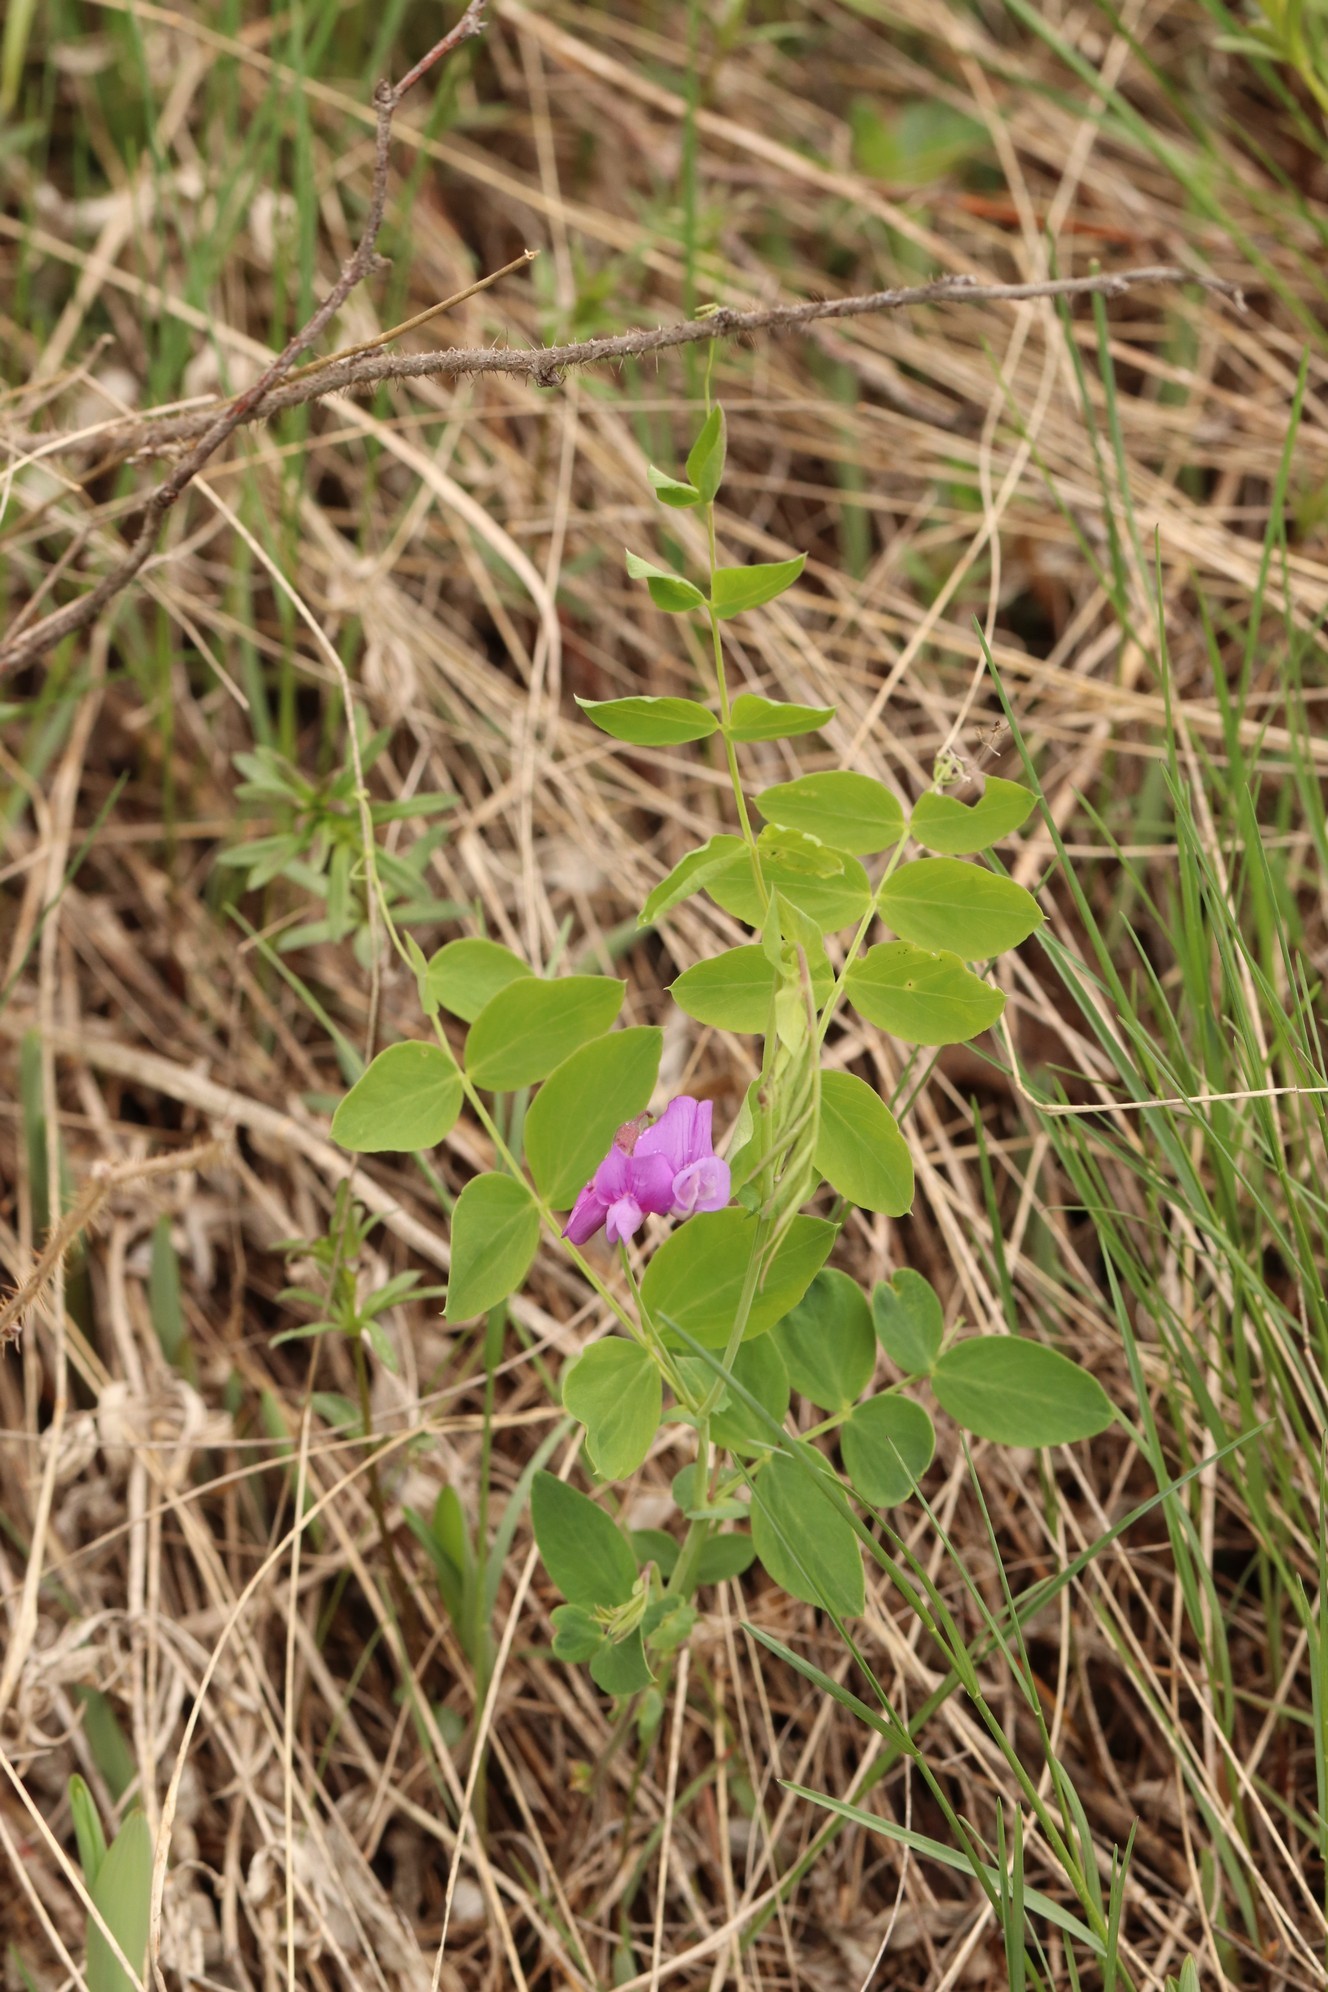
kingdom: Plantae
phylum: Tracheophyta
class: Magnoliopsida
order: Fabales
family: Fabaceae
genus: Lathyrus
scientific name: Lathyrus humilis
